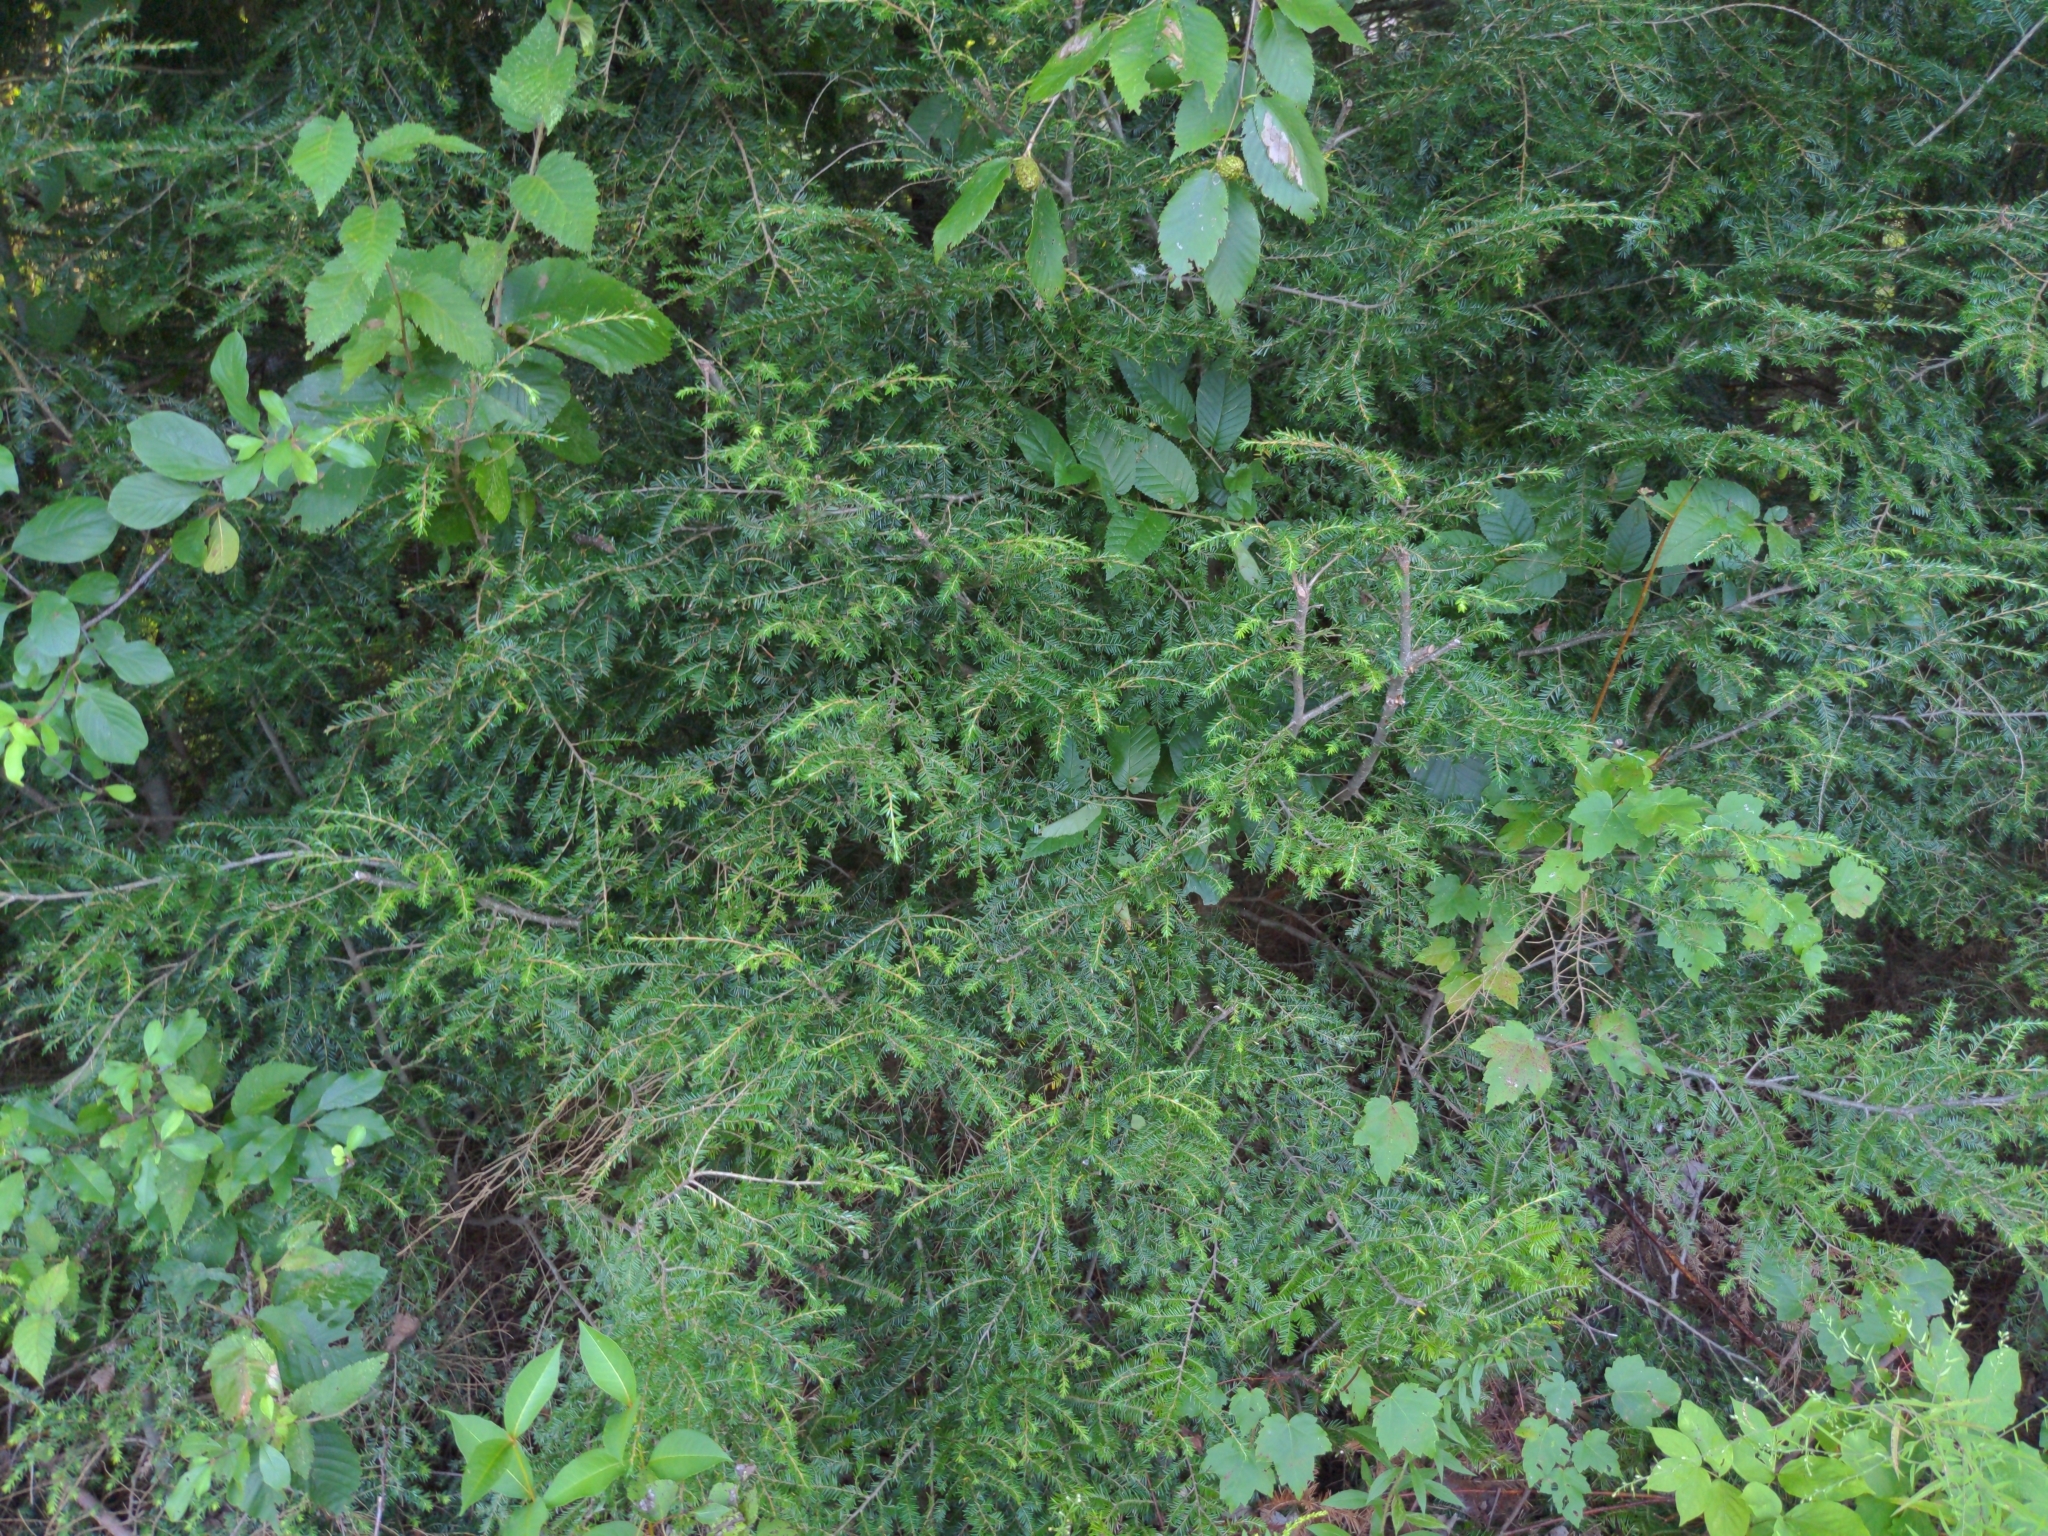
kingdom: Plantae
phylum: Tracheophyta
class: Pinopsida
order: Pinales
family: Pinaceae
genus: Tsuga
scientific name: Tsuga canadensis
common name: Eastern hemlock
